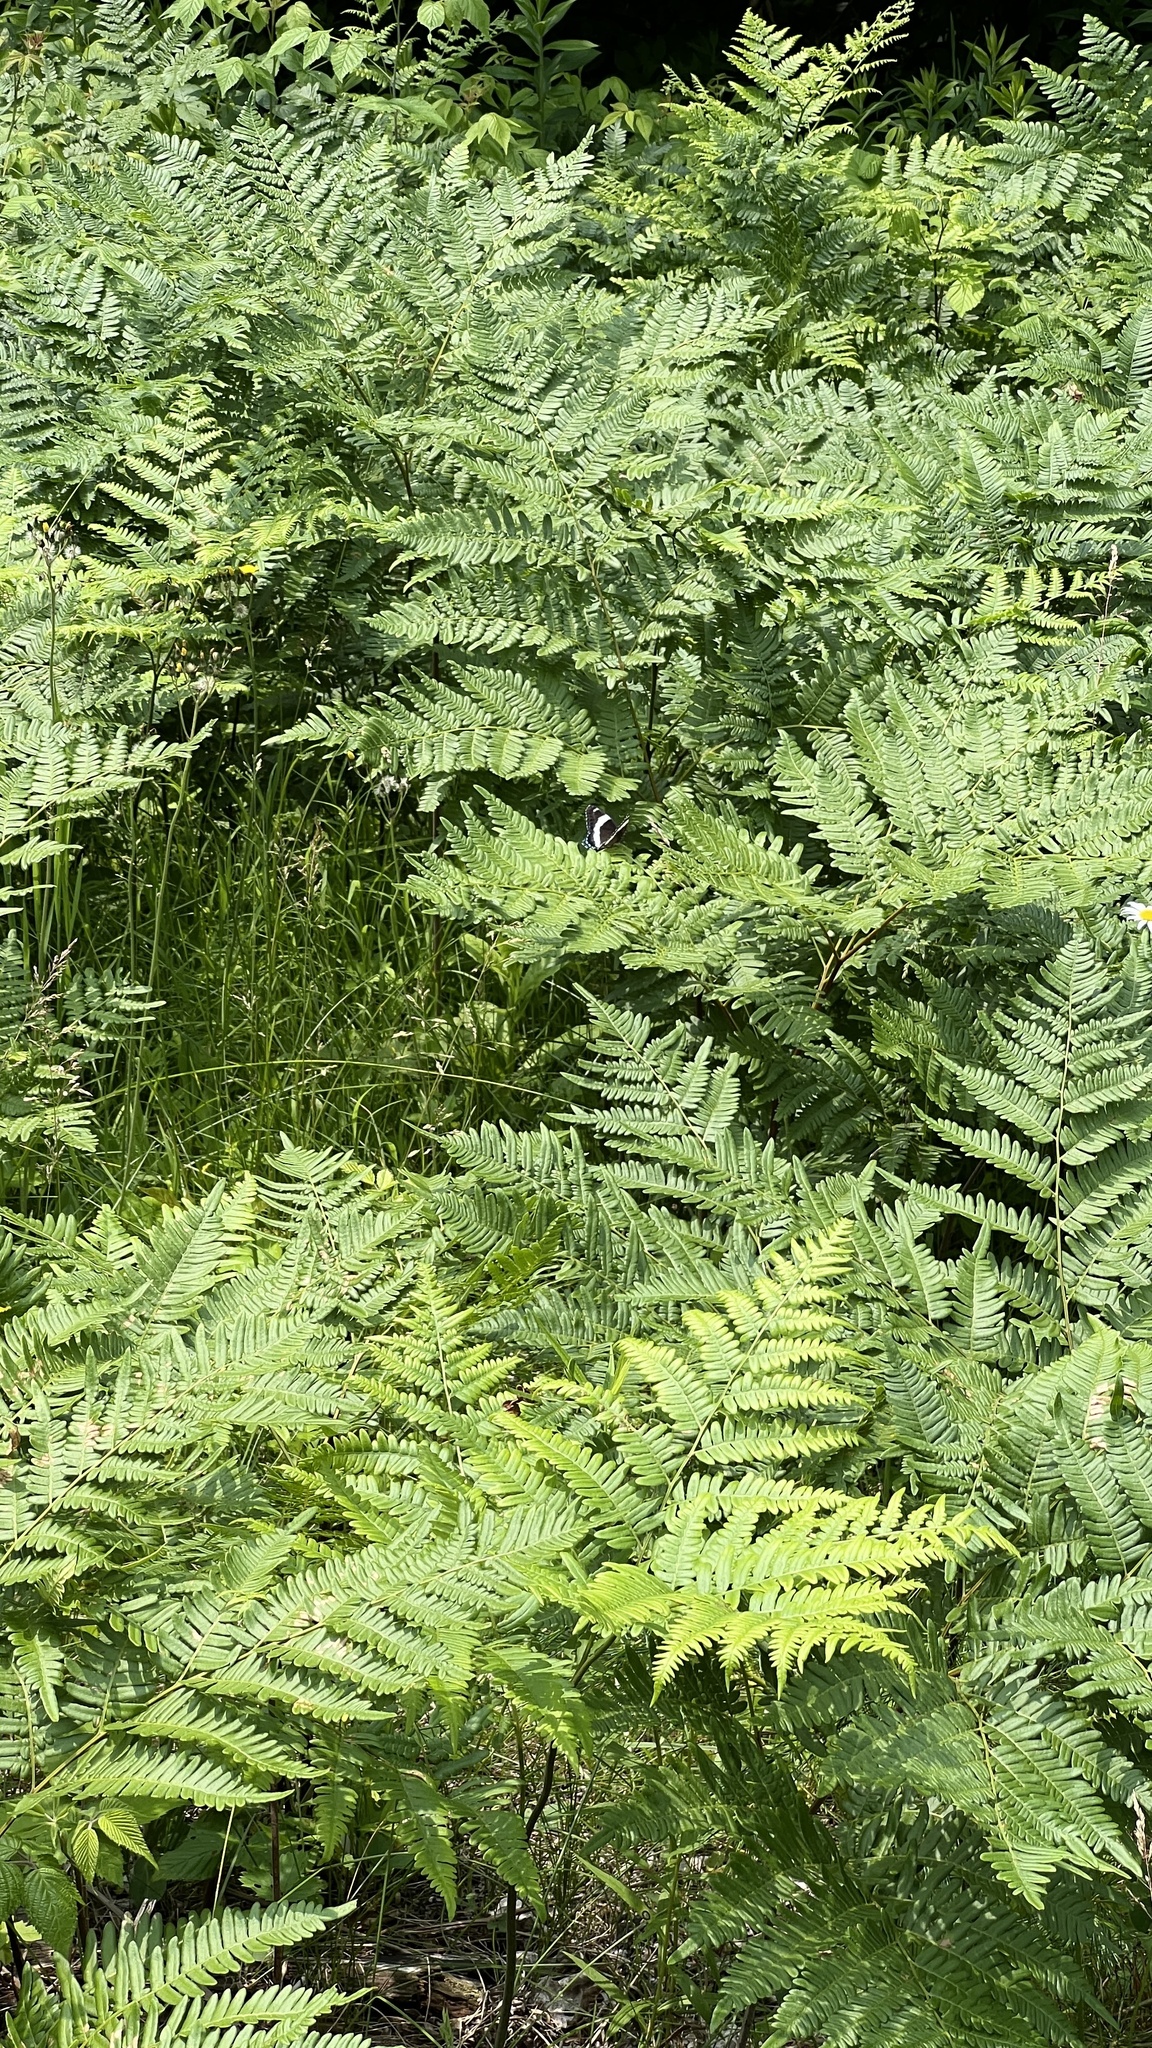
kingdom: Plantae
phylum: Tracheophyta
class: Polypodiopsida
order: Polypodiales
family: Dennstaedtiaceae
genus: Pteridium
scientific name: Pteridium aquilinum
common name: Bracken
